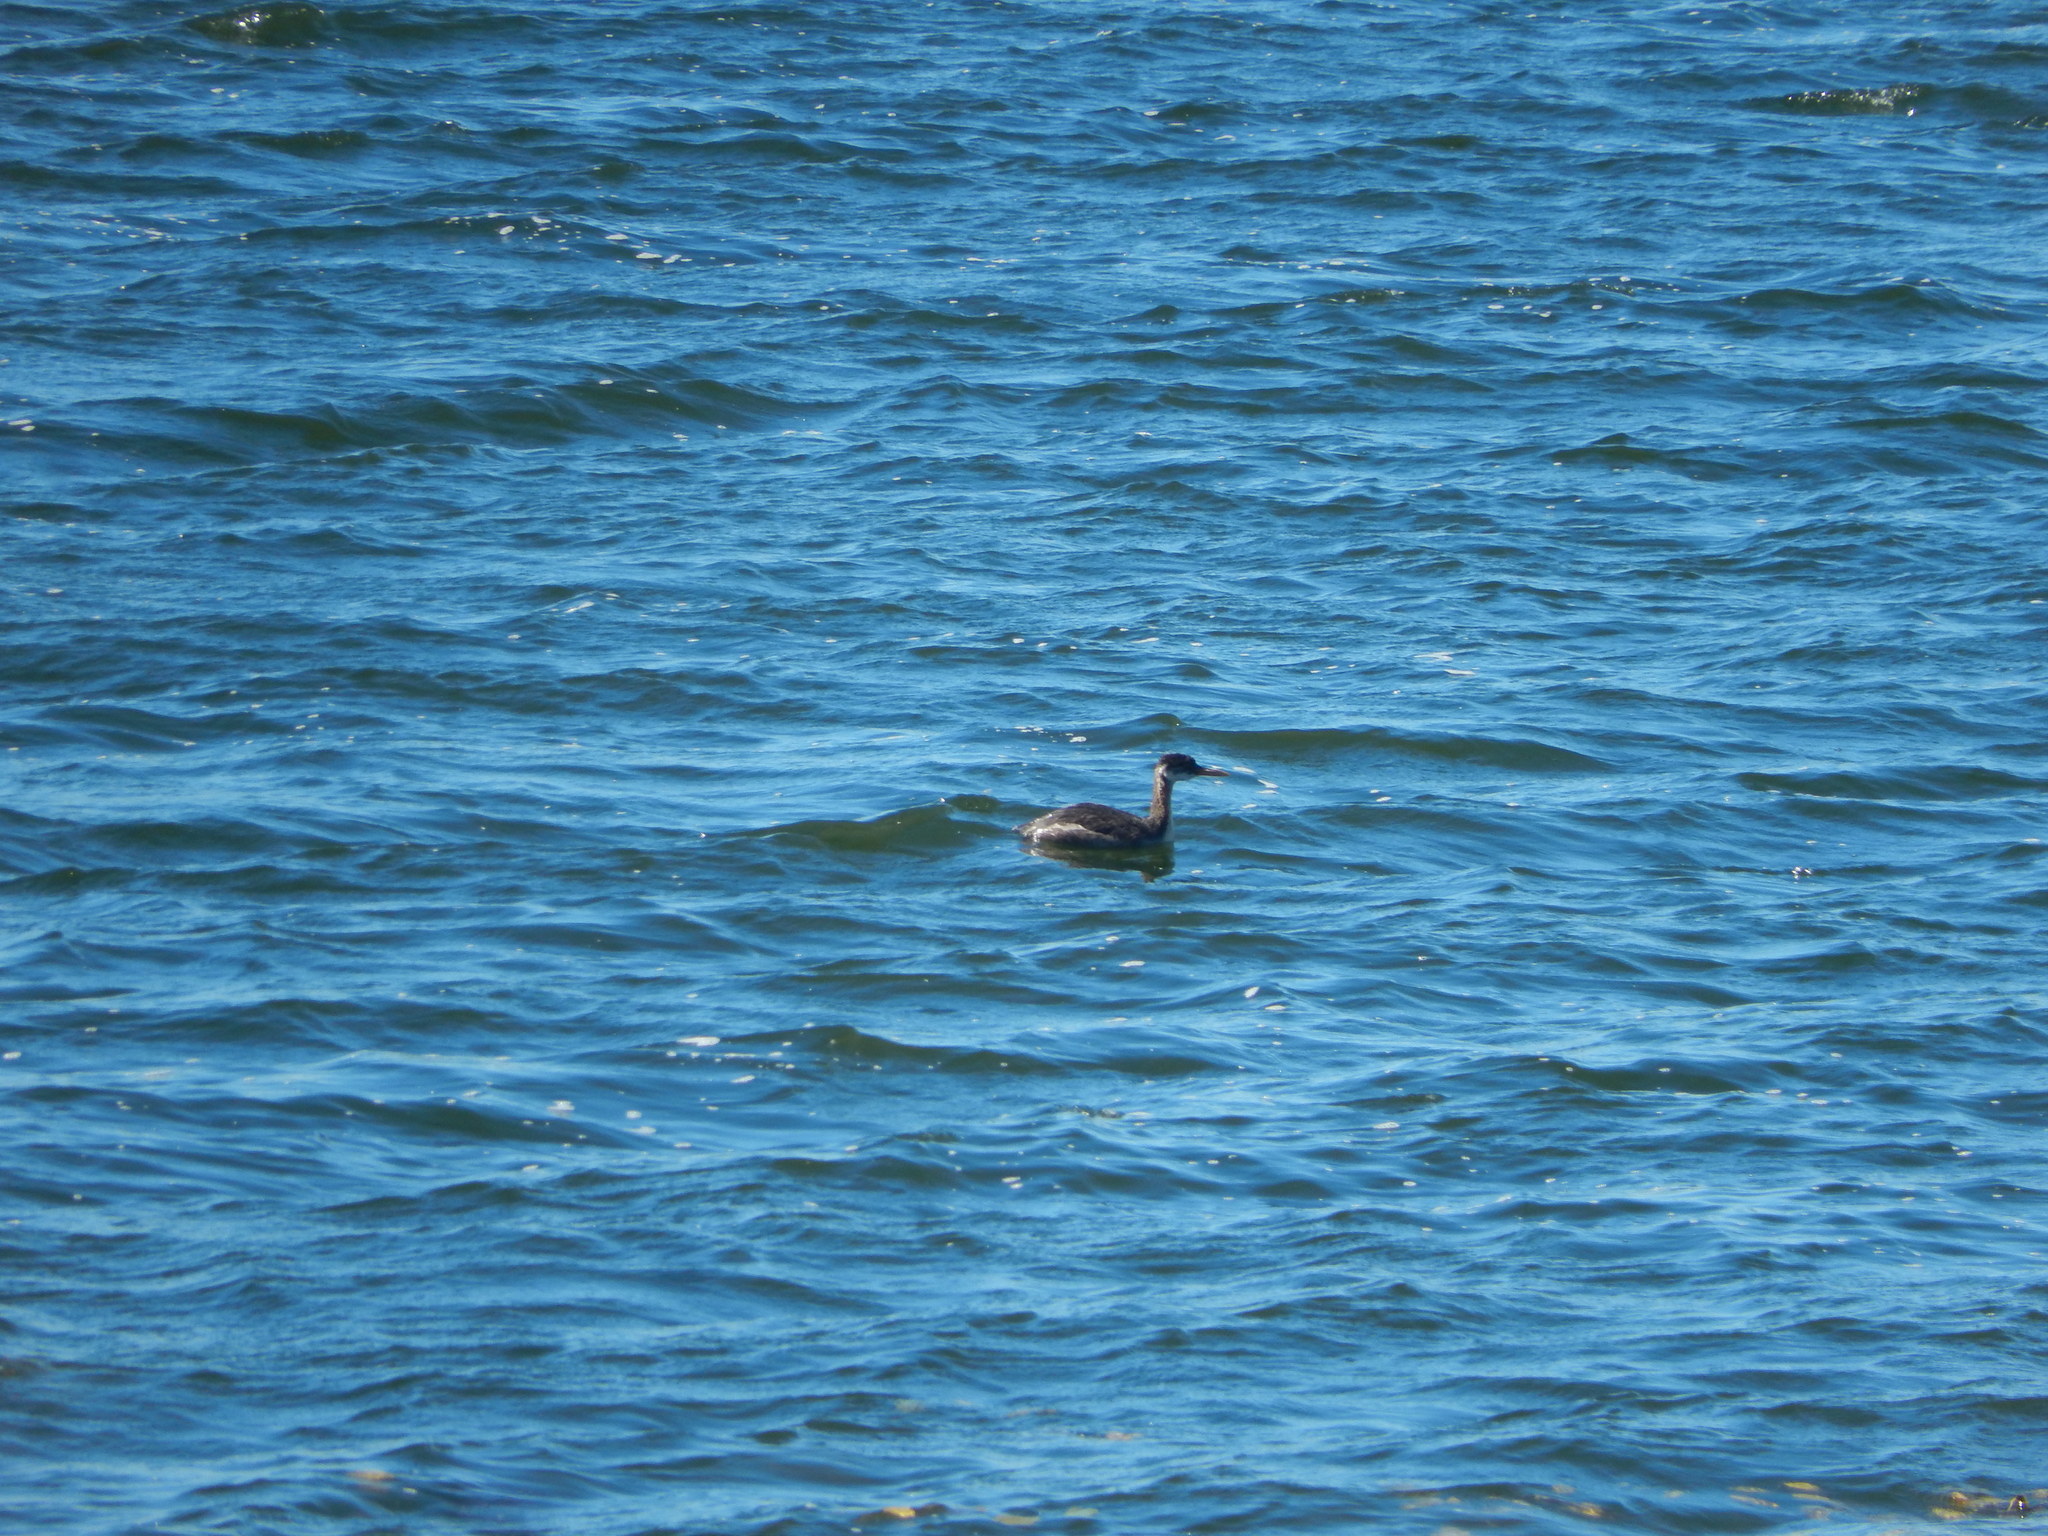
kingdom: Animalia
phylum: Chordata
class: Aves
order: Podicipediformes
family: Podicipedidae
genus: Podiceps
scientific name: Podiceps grisegena
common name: Red-necked grebe
